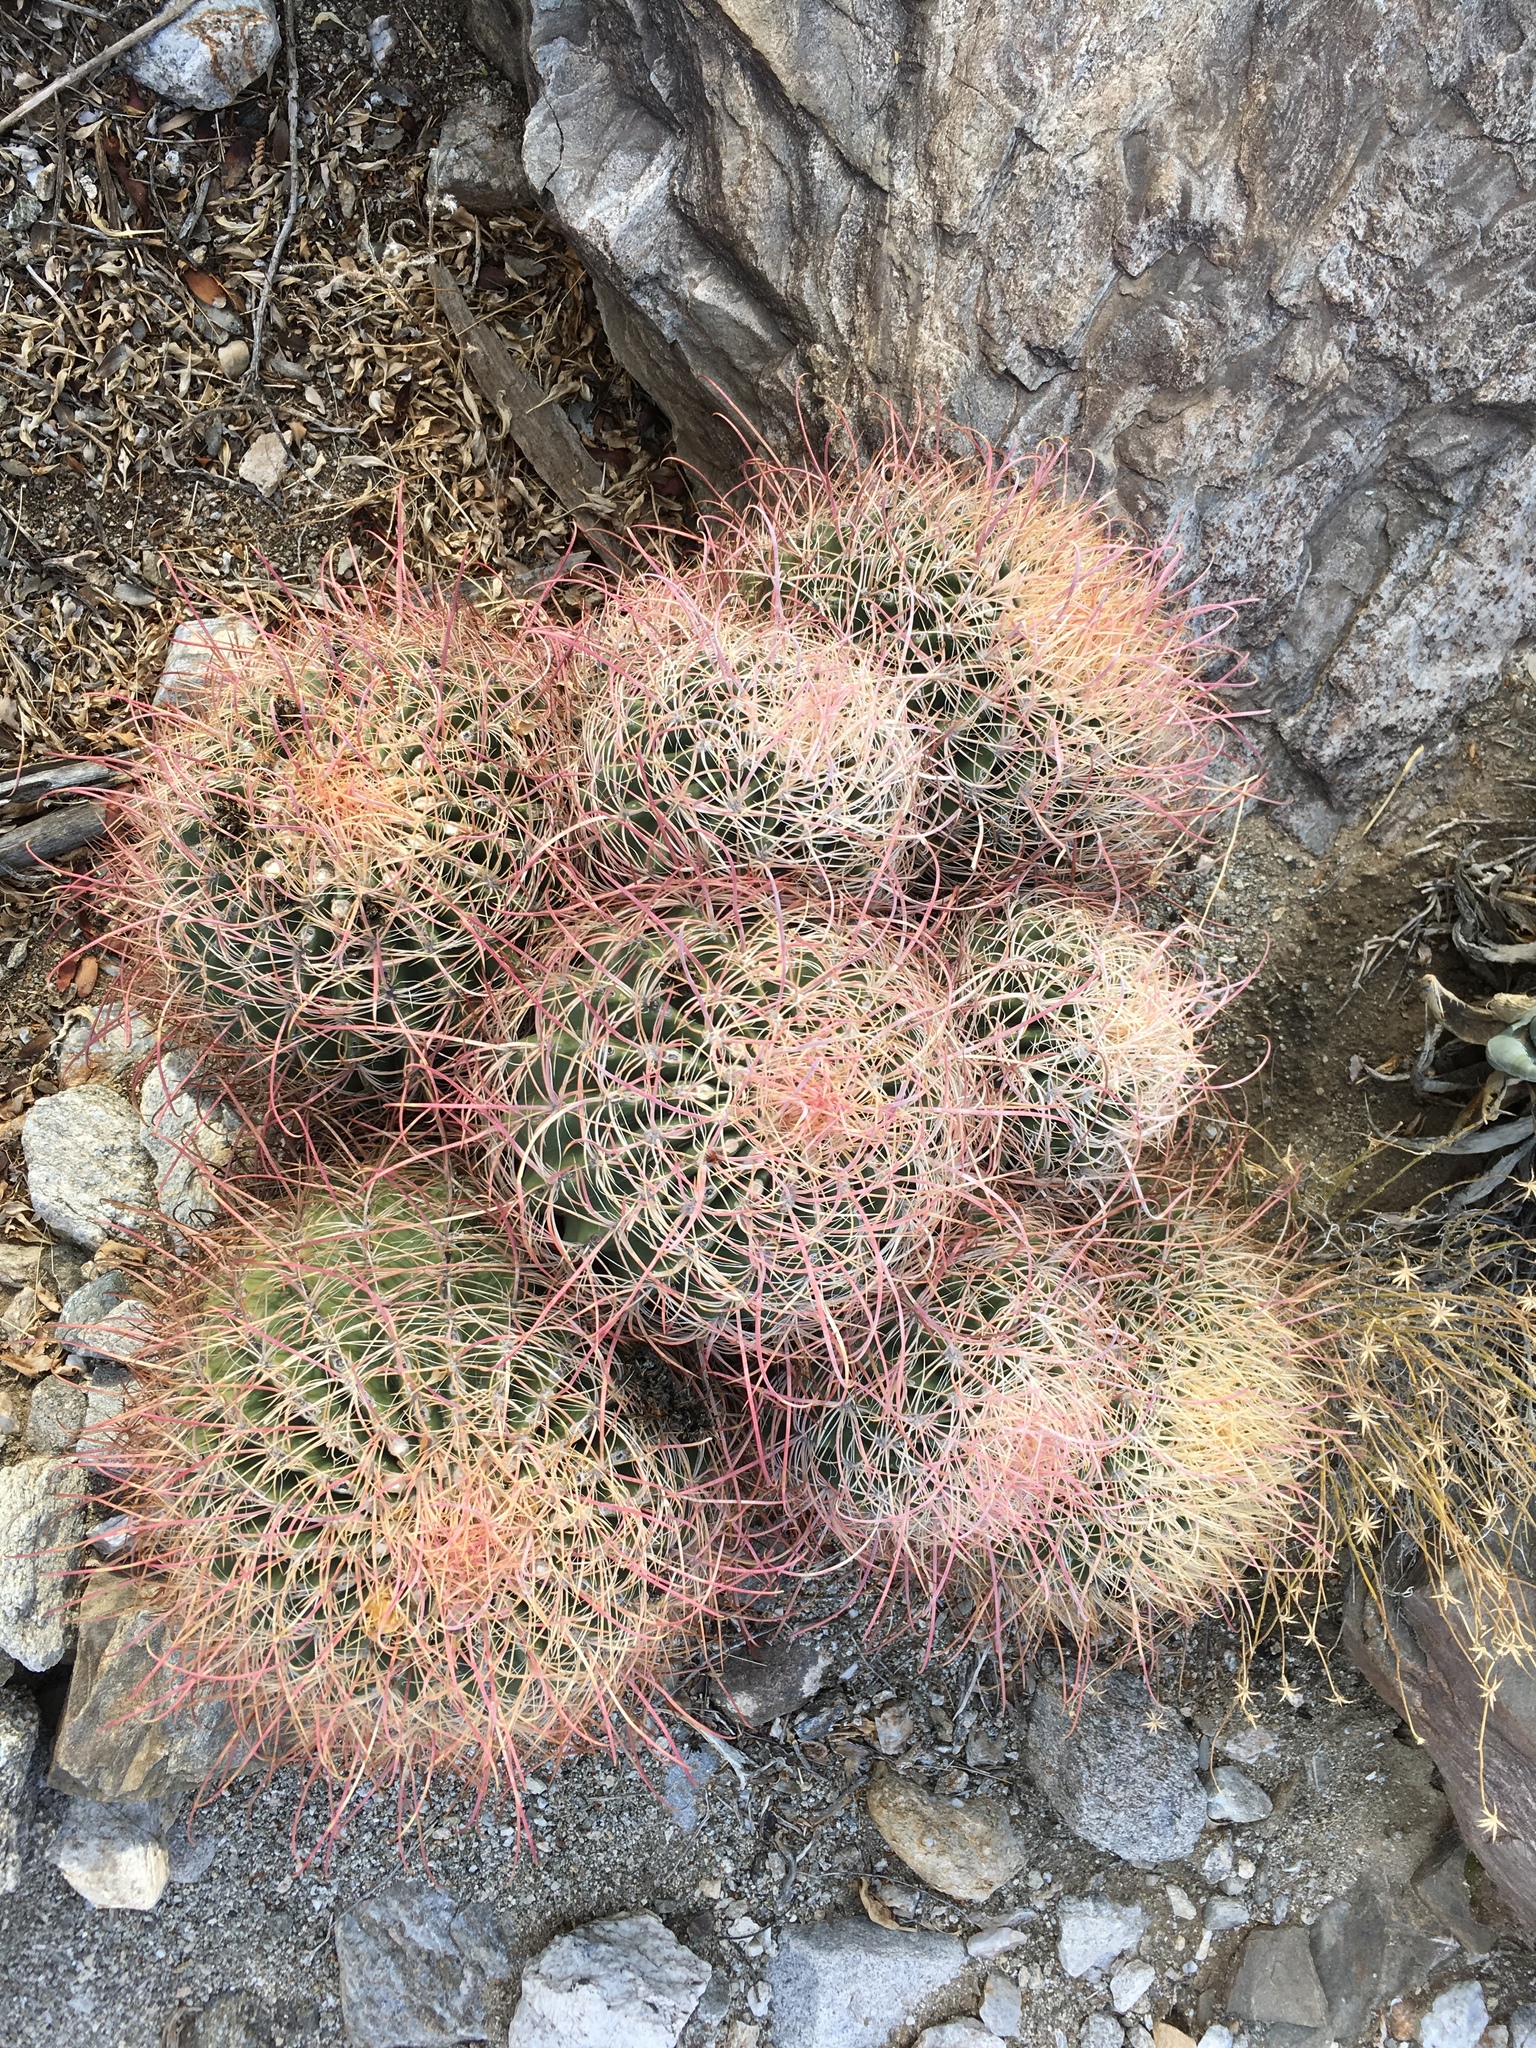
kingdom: Plantae
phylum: Tracheophyta
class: Magnoliopsida
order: Caryophyllales
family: Cactaceae
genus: Ferocactus
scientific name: Ferocactus cylindraceus
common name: California barrel cactus
